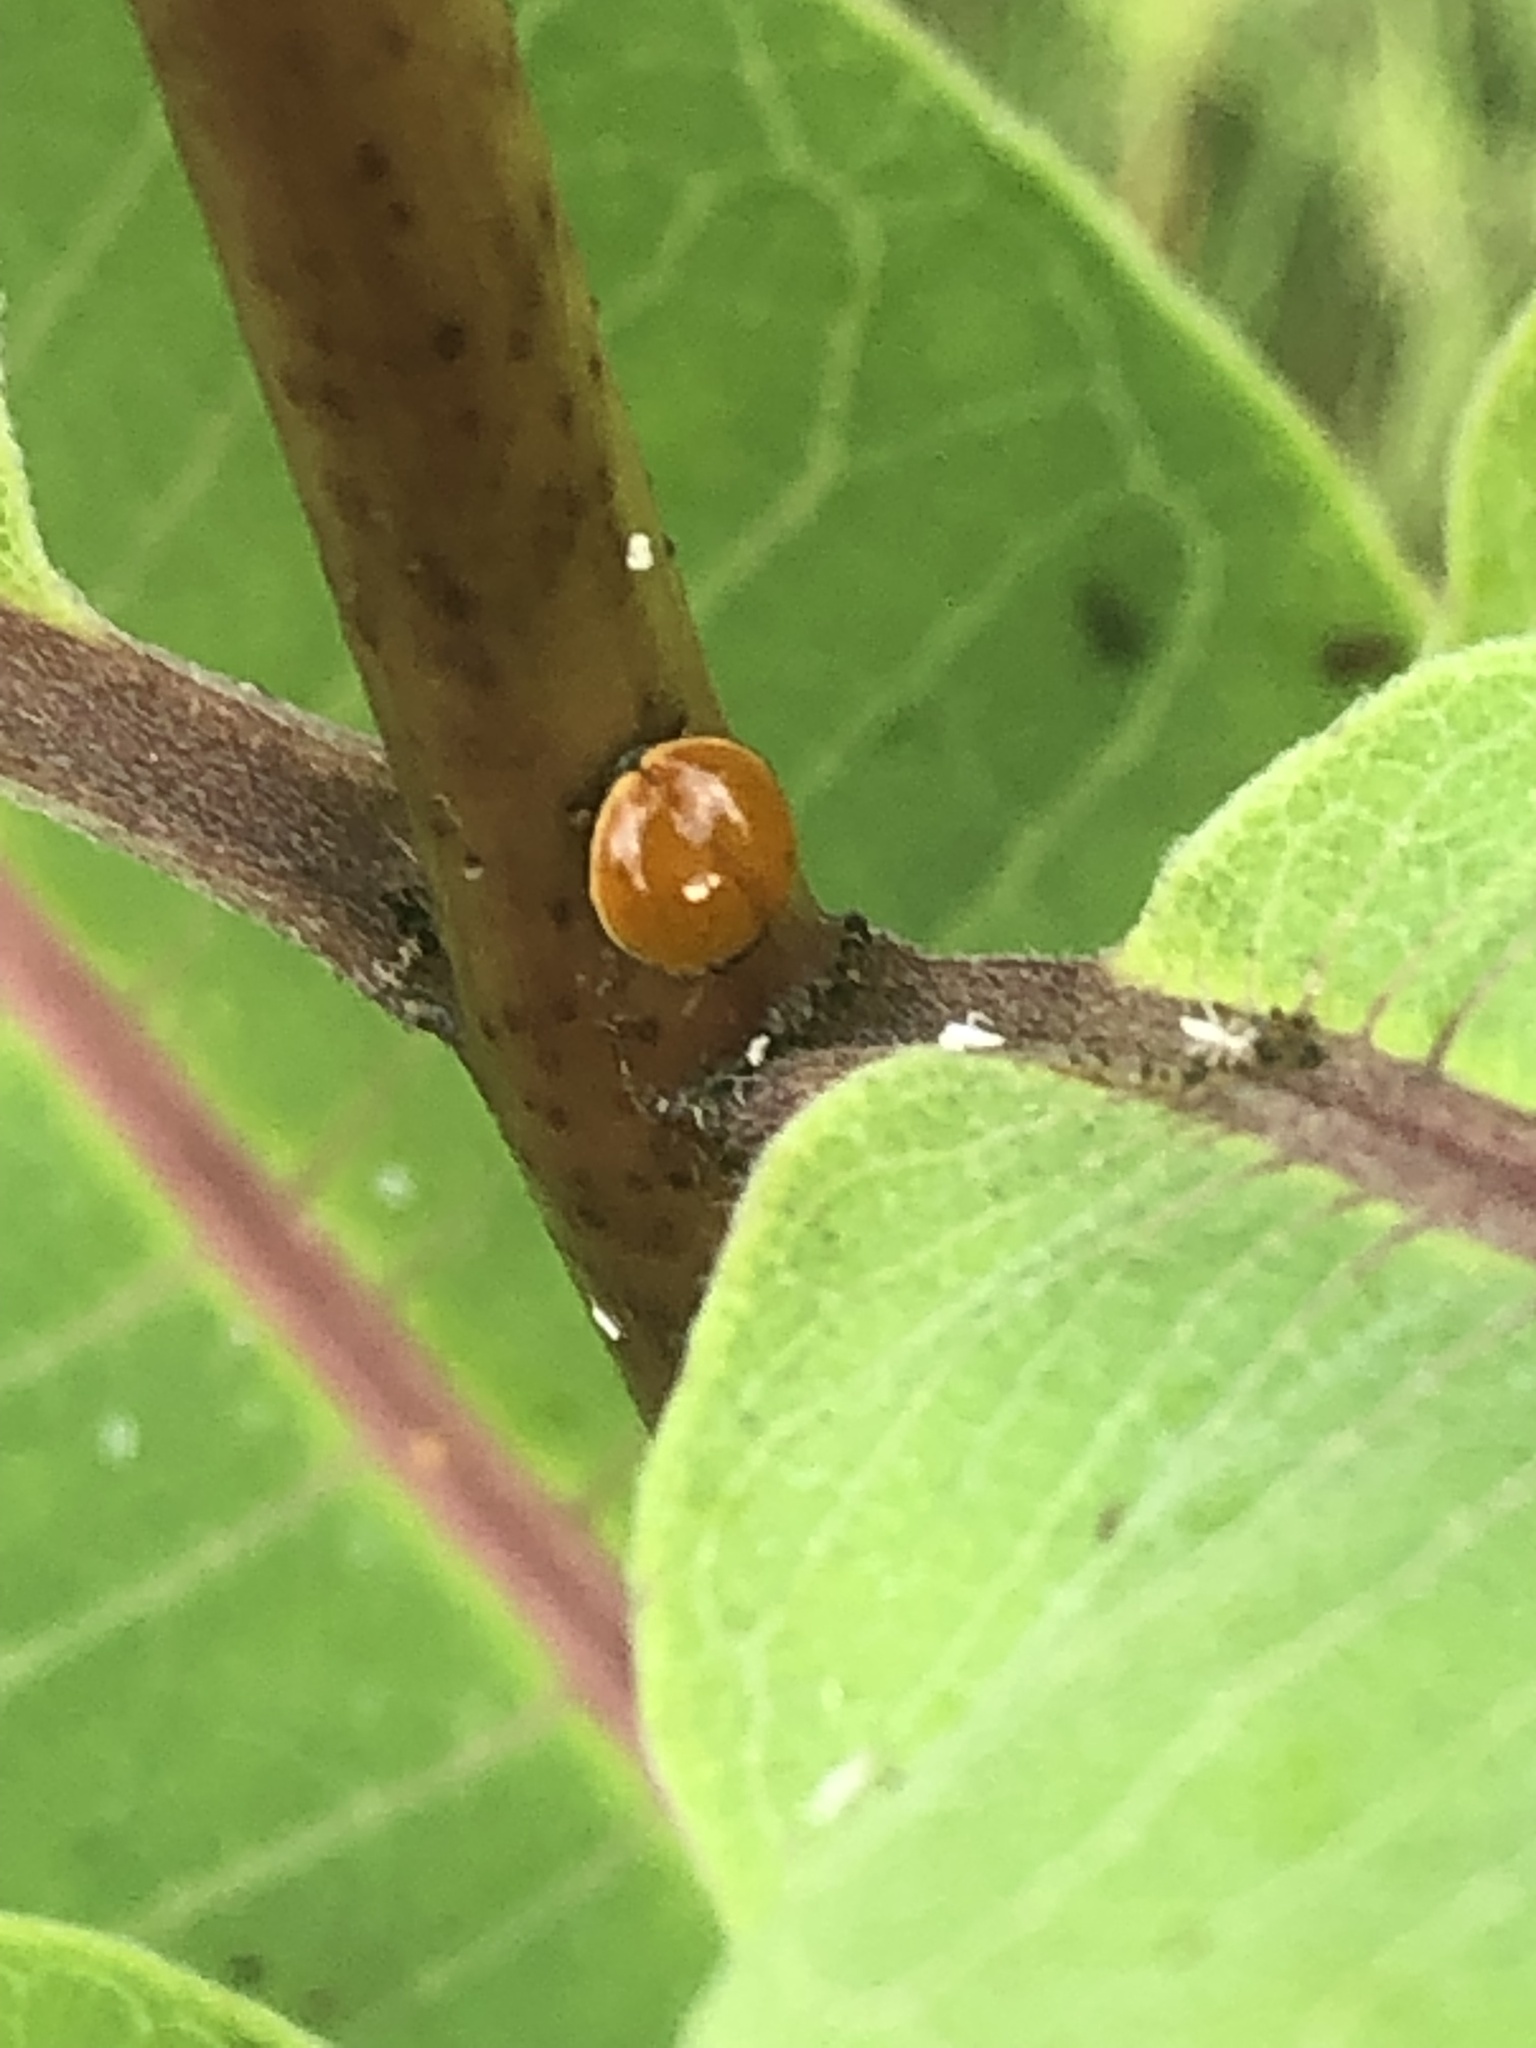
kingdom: Animalia
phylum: Arthropoda
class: Insecta
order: Coleoptera
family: Coccinellidae
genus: Cycloneda
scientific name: Cycloneda munda
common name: Polished lady beetle
